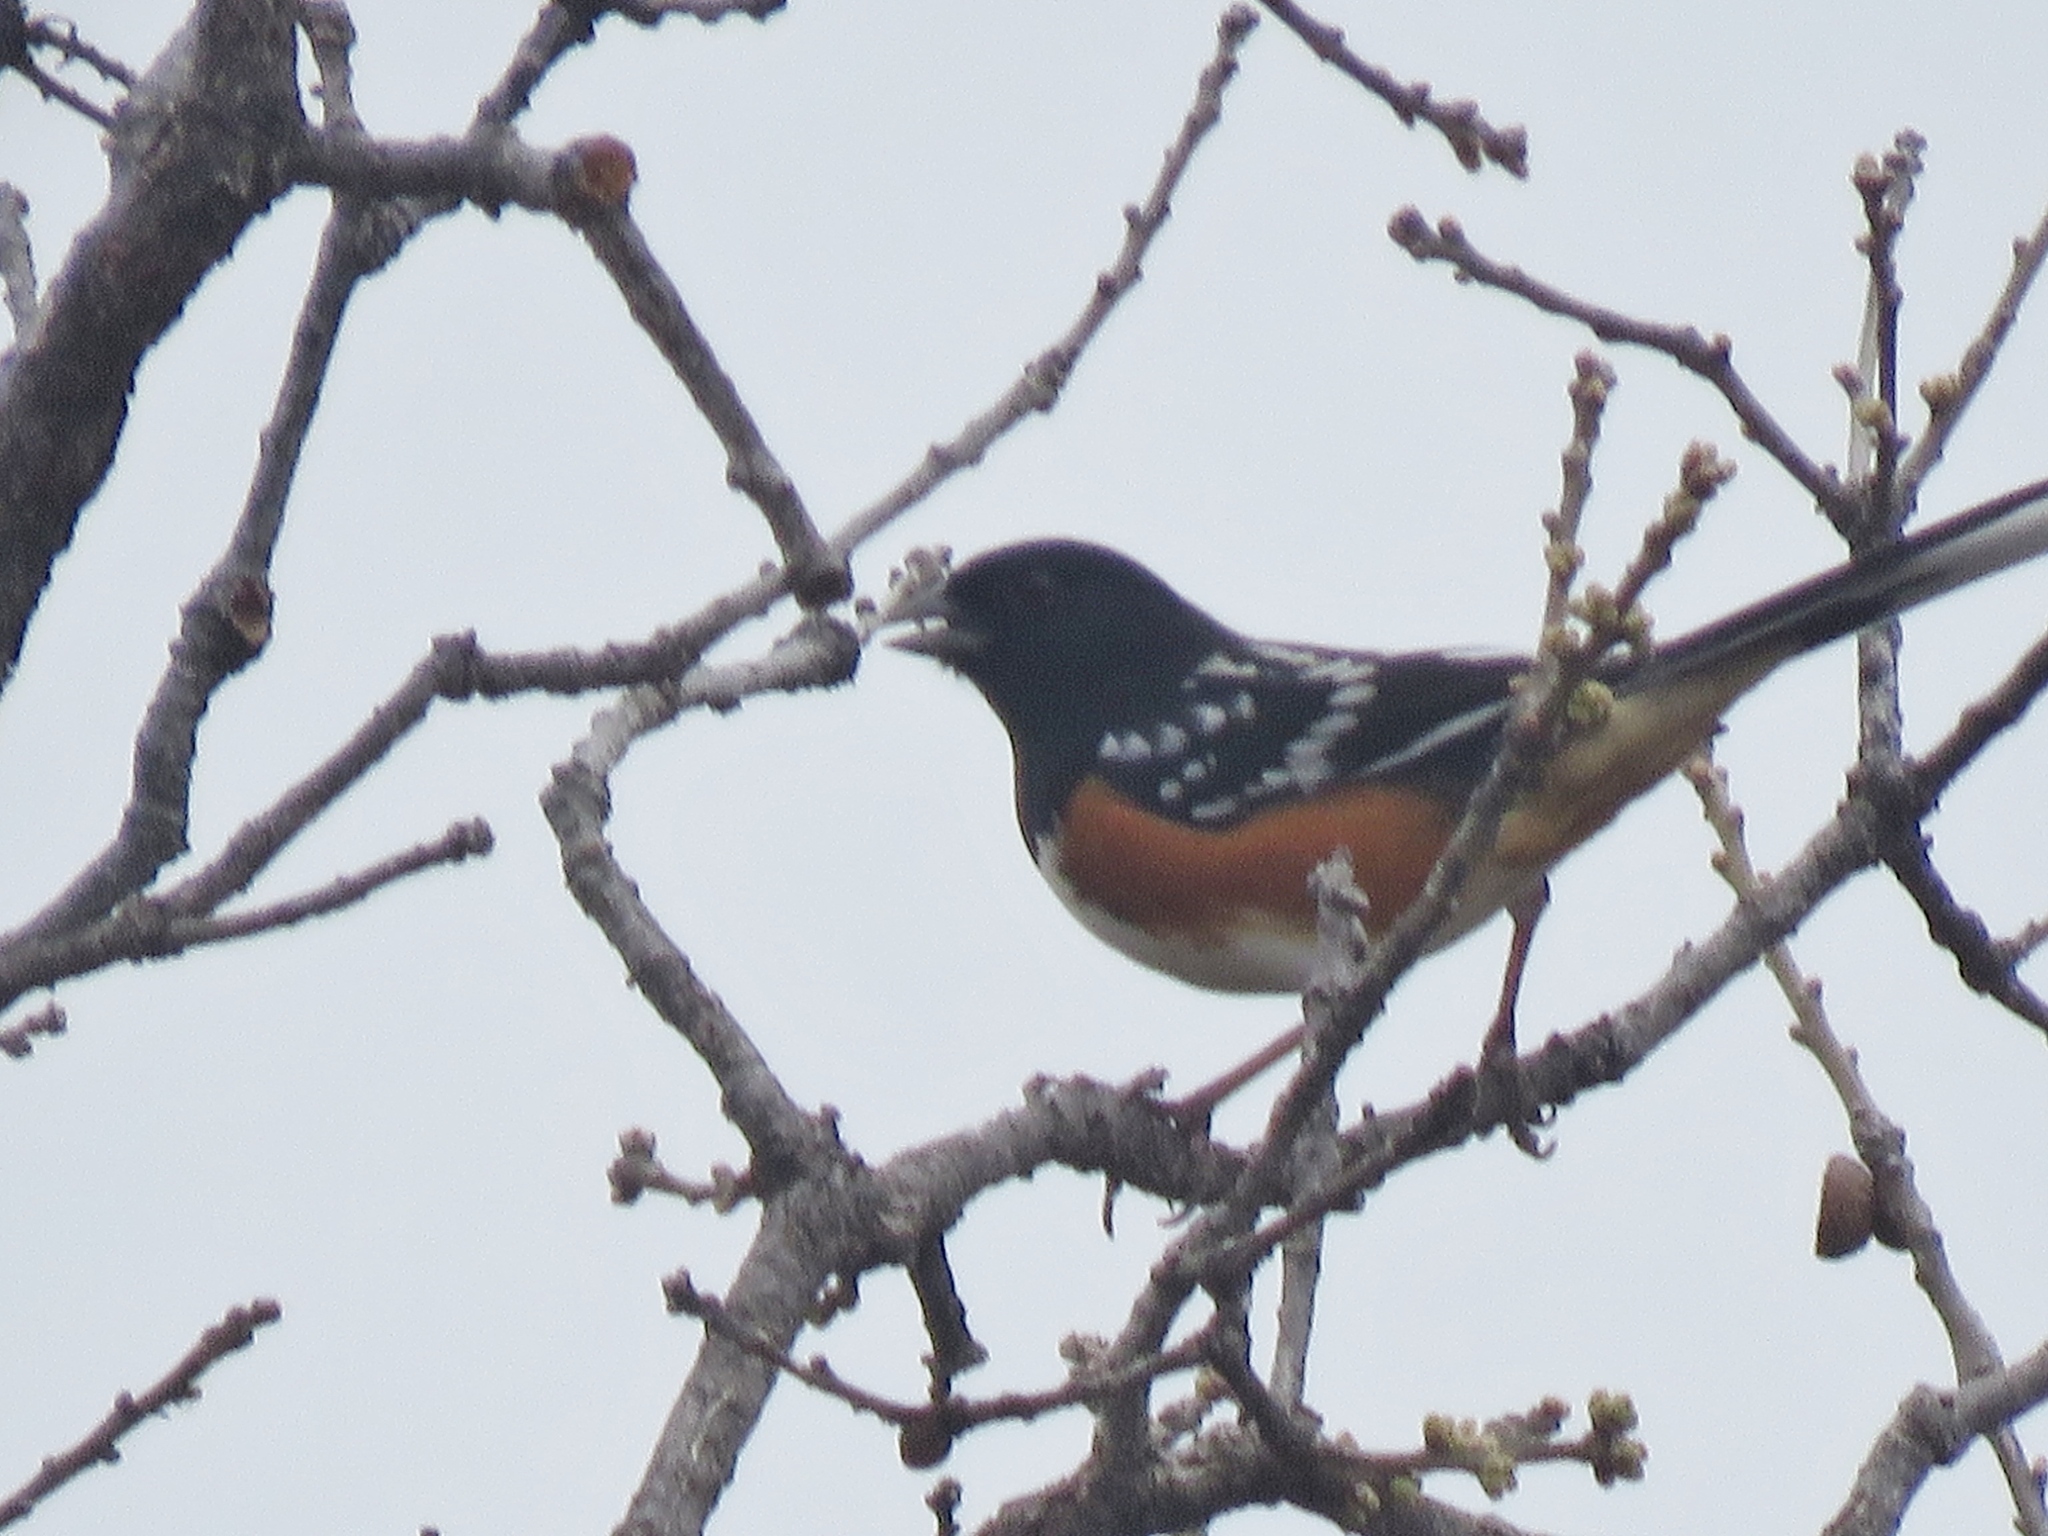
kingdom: Animalia
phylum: Chordata
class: Aves
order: Passeriformes
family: Passerellidae
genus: Pipilo
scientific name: Pipilo maculatus
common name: Spotted towhee
